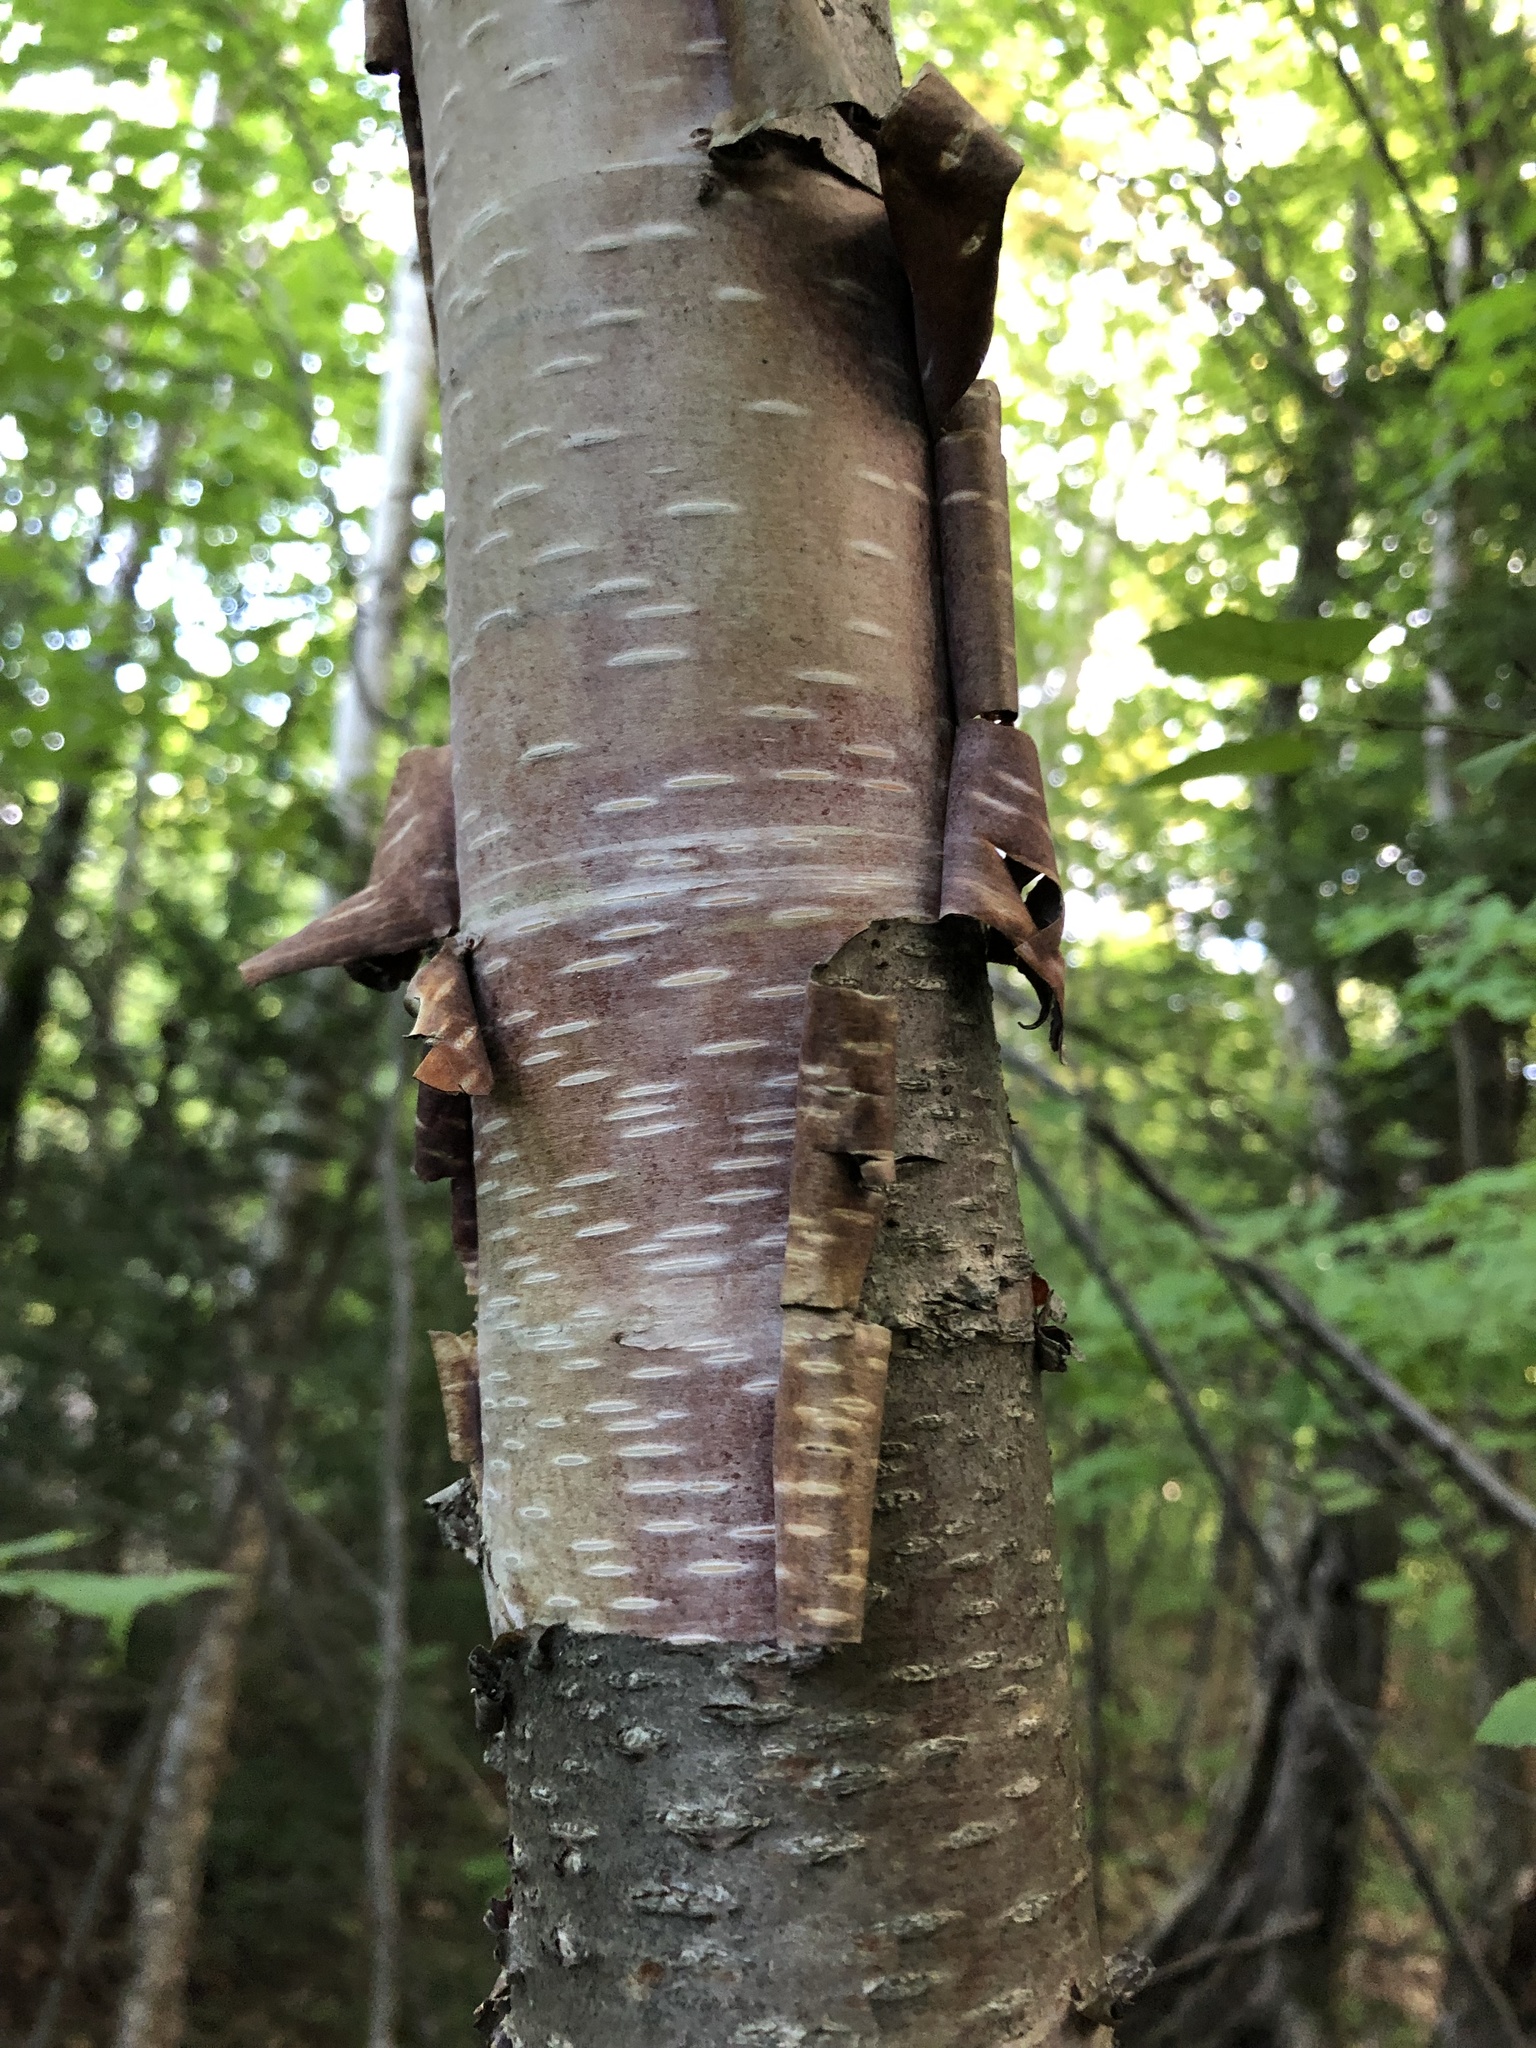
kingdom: Plantae
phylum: Tracheophyta
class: Magnoliopsida
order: Fagales
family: Betulaceae
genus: Betula
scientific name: Betula alleghaniensis
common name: Yellow birch
